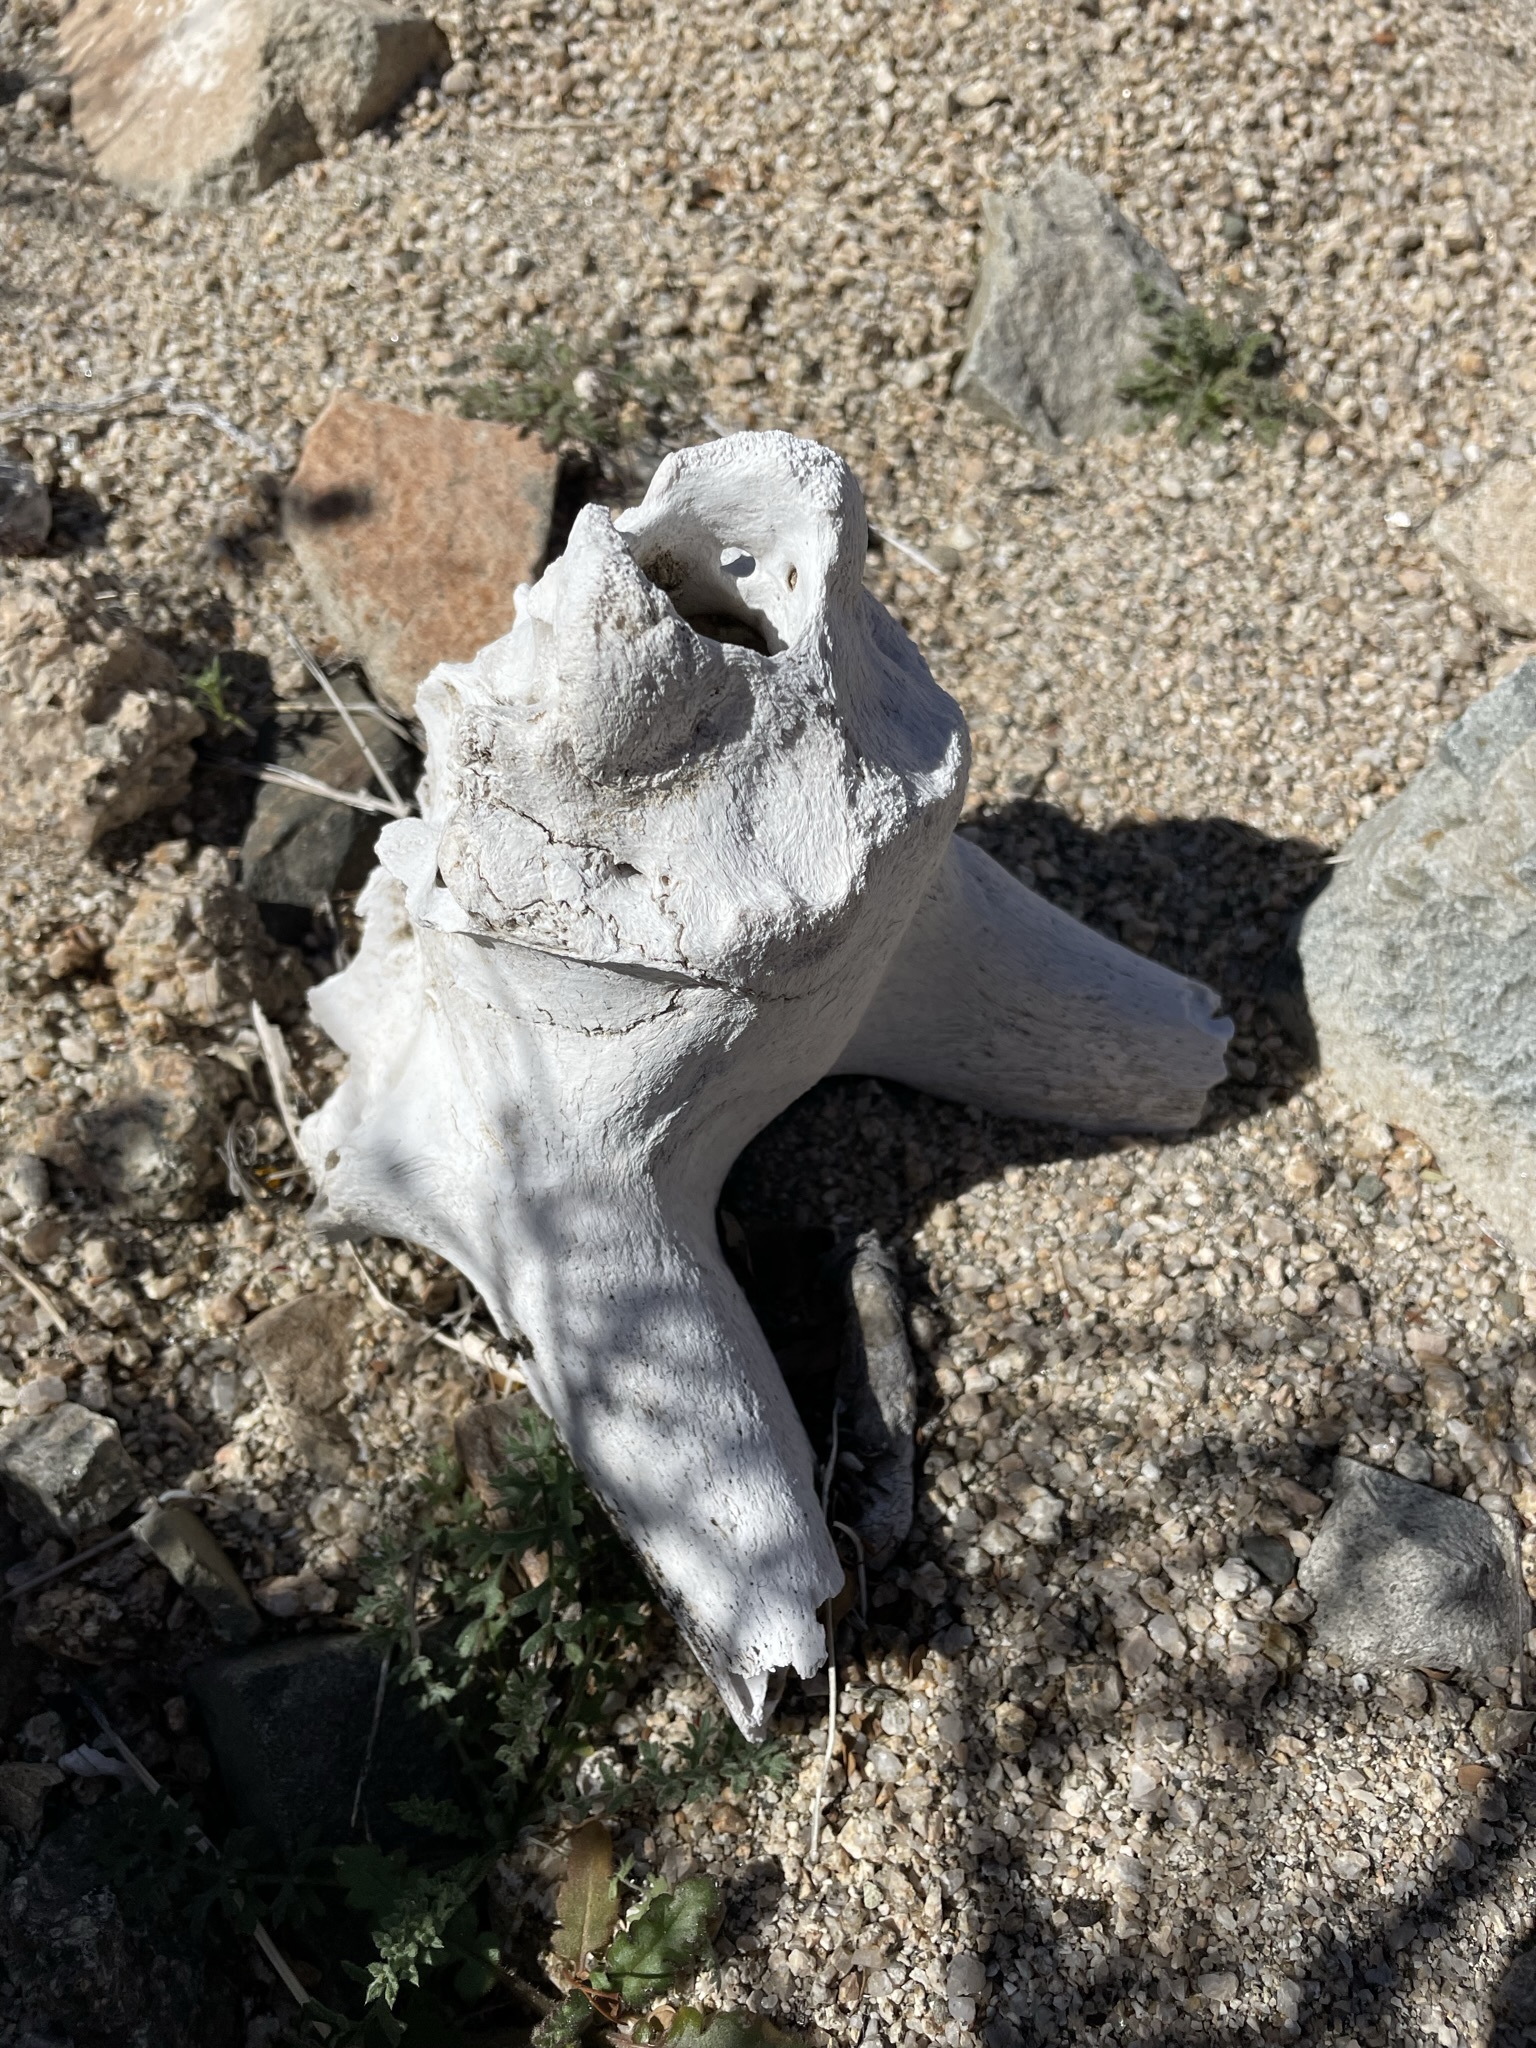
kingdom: Animalia
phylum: Chordata
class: Mammalia
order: Artiodactyla
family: Bovidae
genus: Ovis
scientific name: Ovis canadensis
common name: Bighorn sheep
